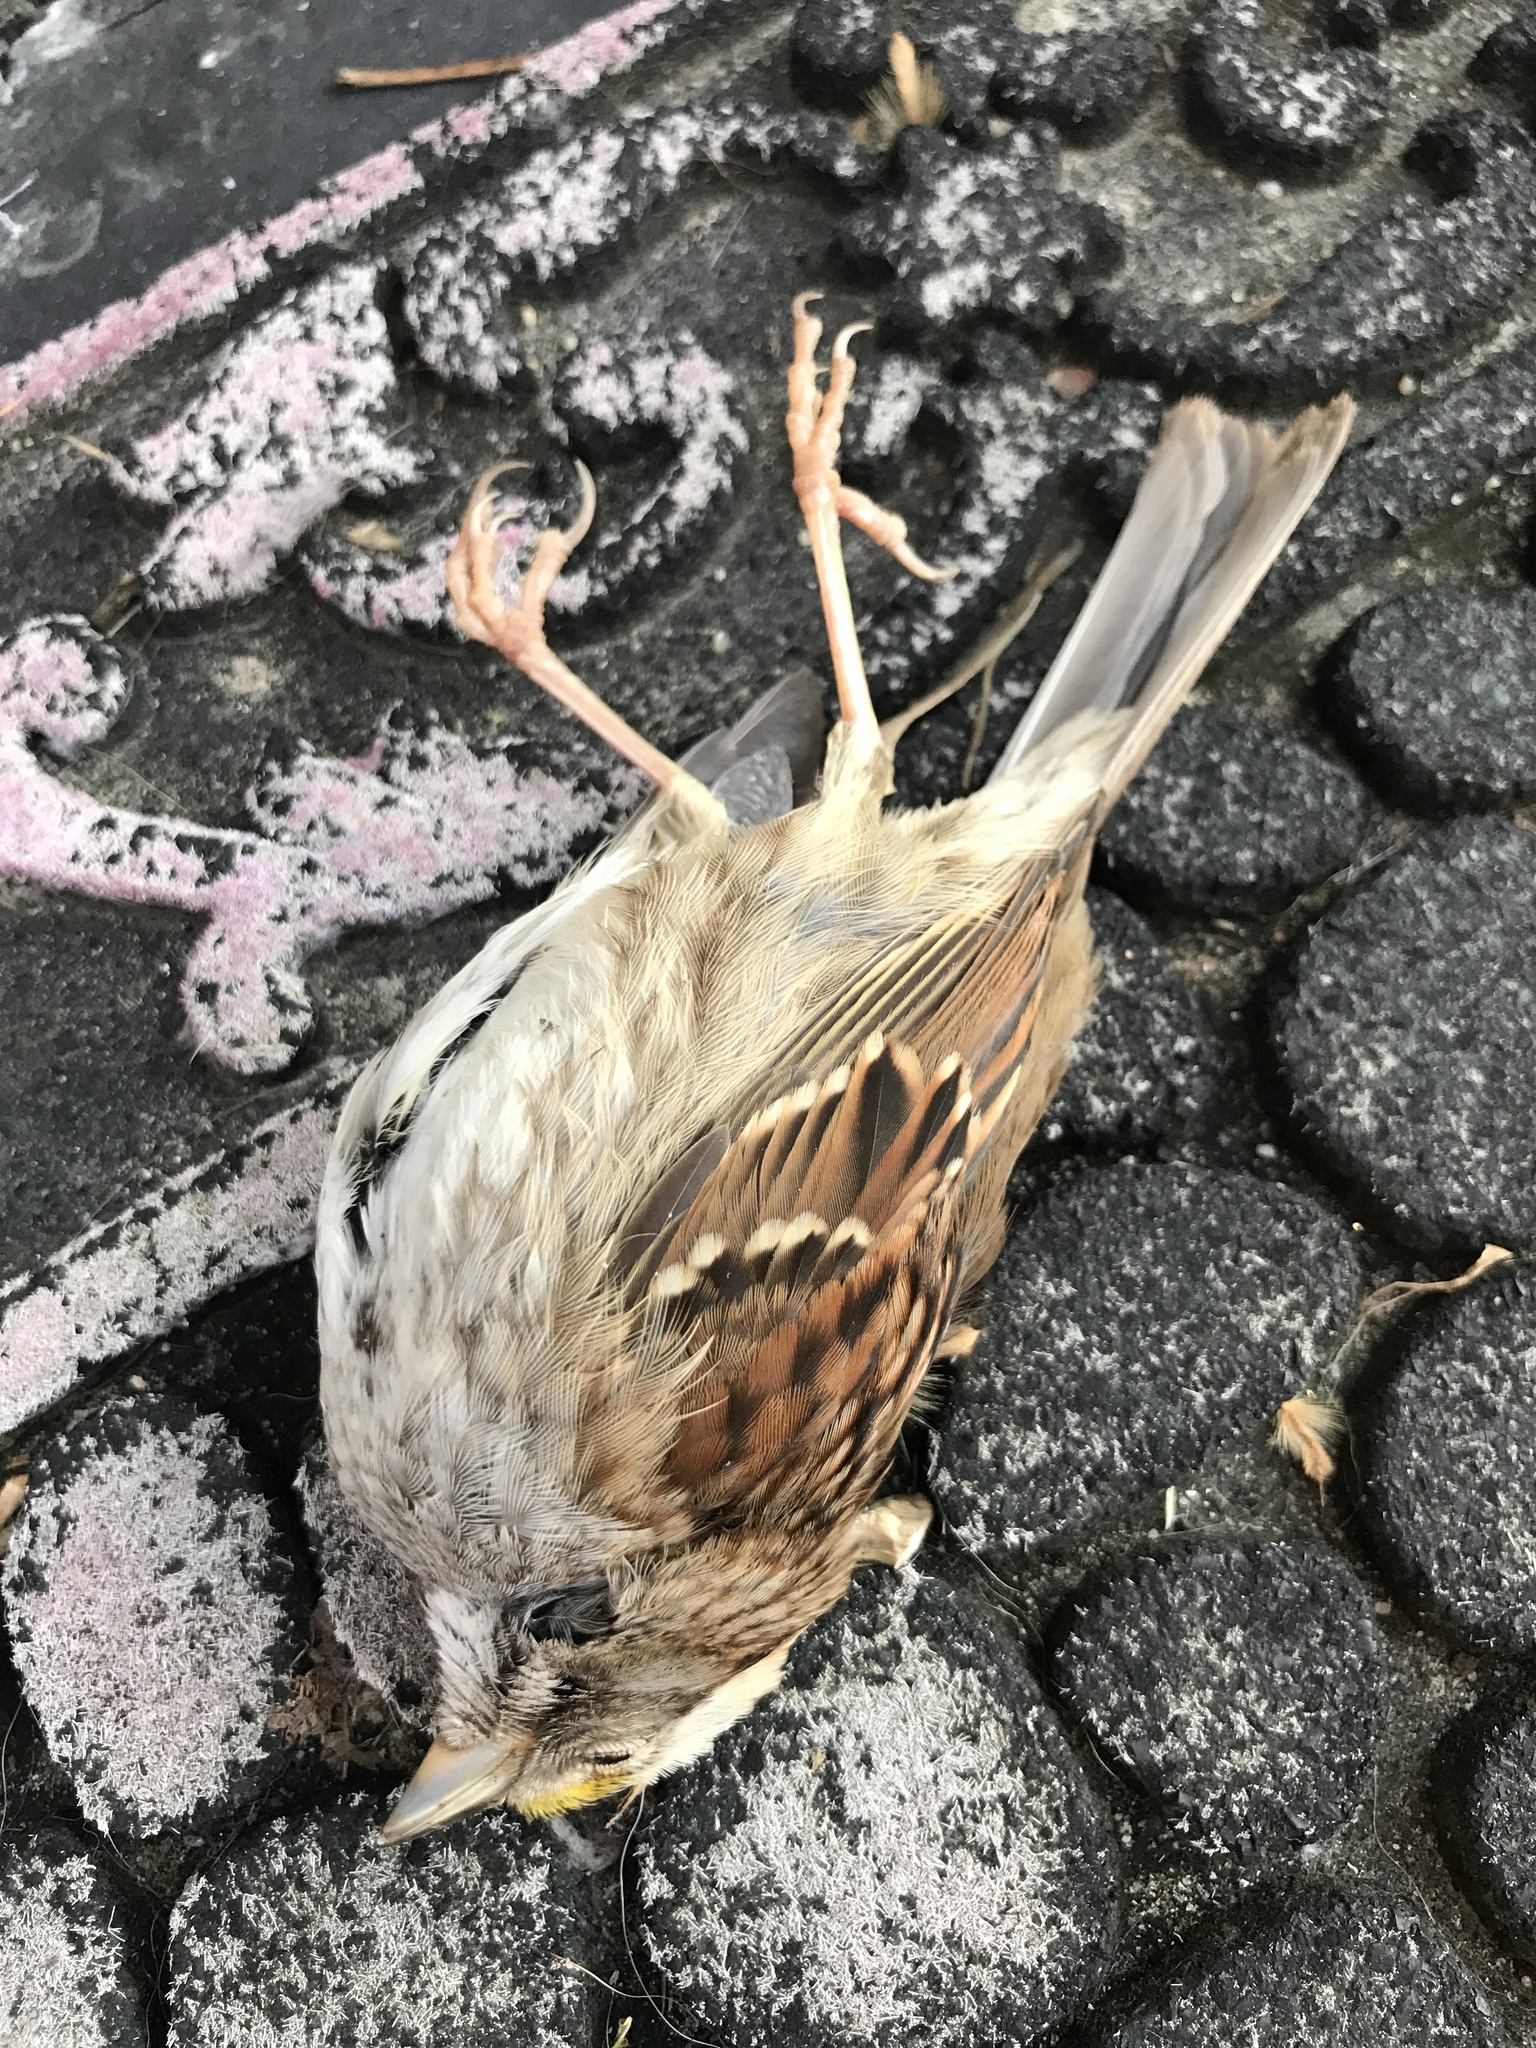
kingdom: Animalia
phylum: Chordata
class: Aves
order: Passeriformes
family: Passerellidae
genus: Zonotrichia
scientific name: Zonotrichia albicollis
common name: White-throated sparrow
